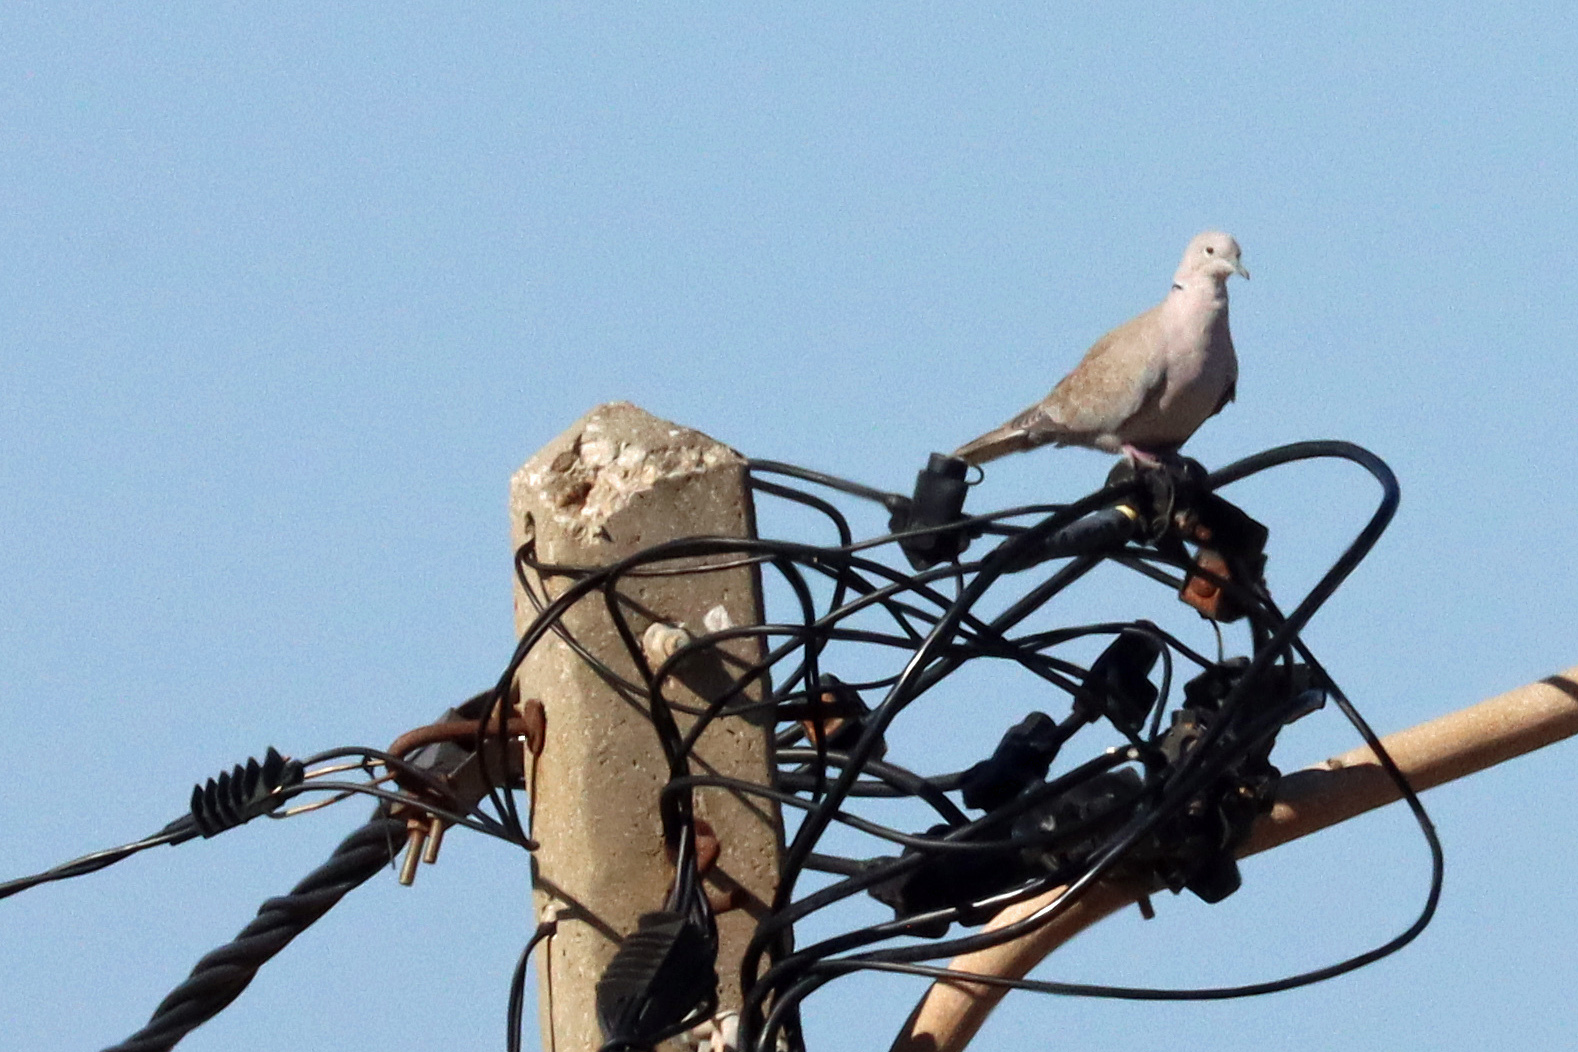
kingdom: Animalia
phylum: Chordata
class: Aves
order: Columbiformes
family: Columbidae
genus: Streptopelia
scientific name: Streptopelia decaocto
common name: Eurasian collared dove
